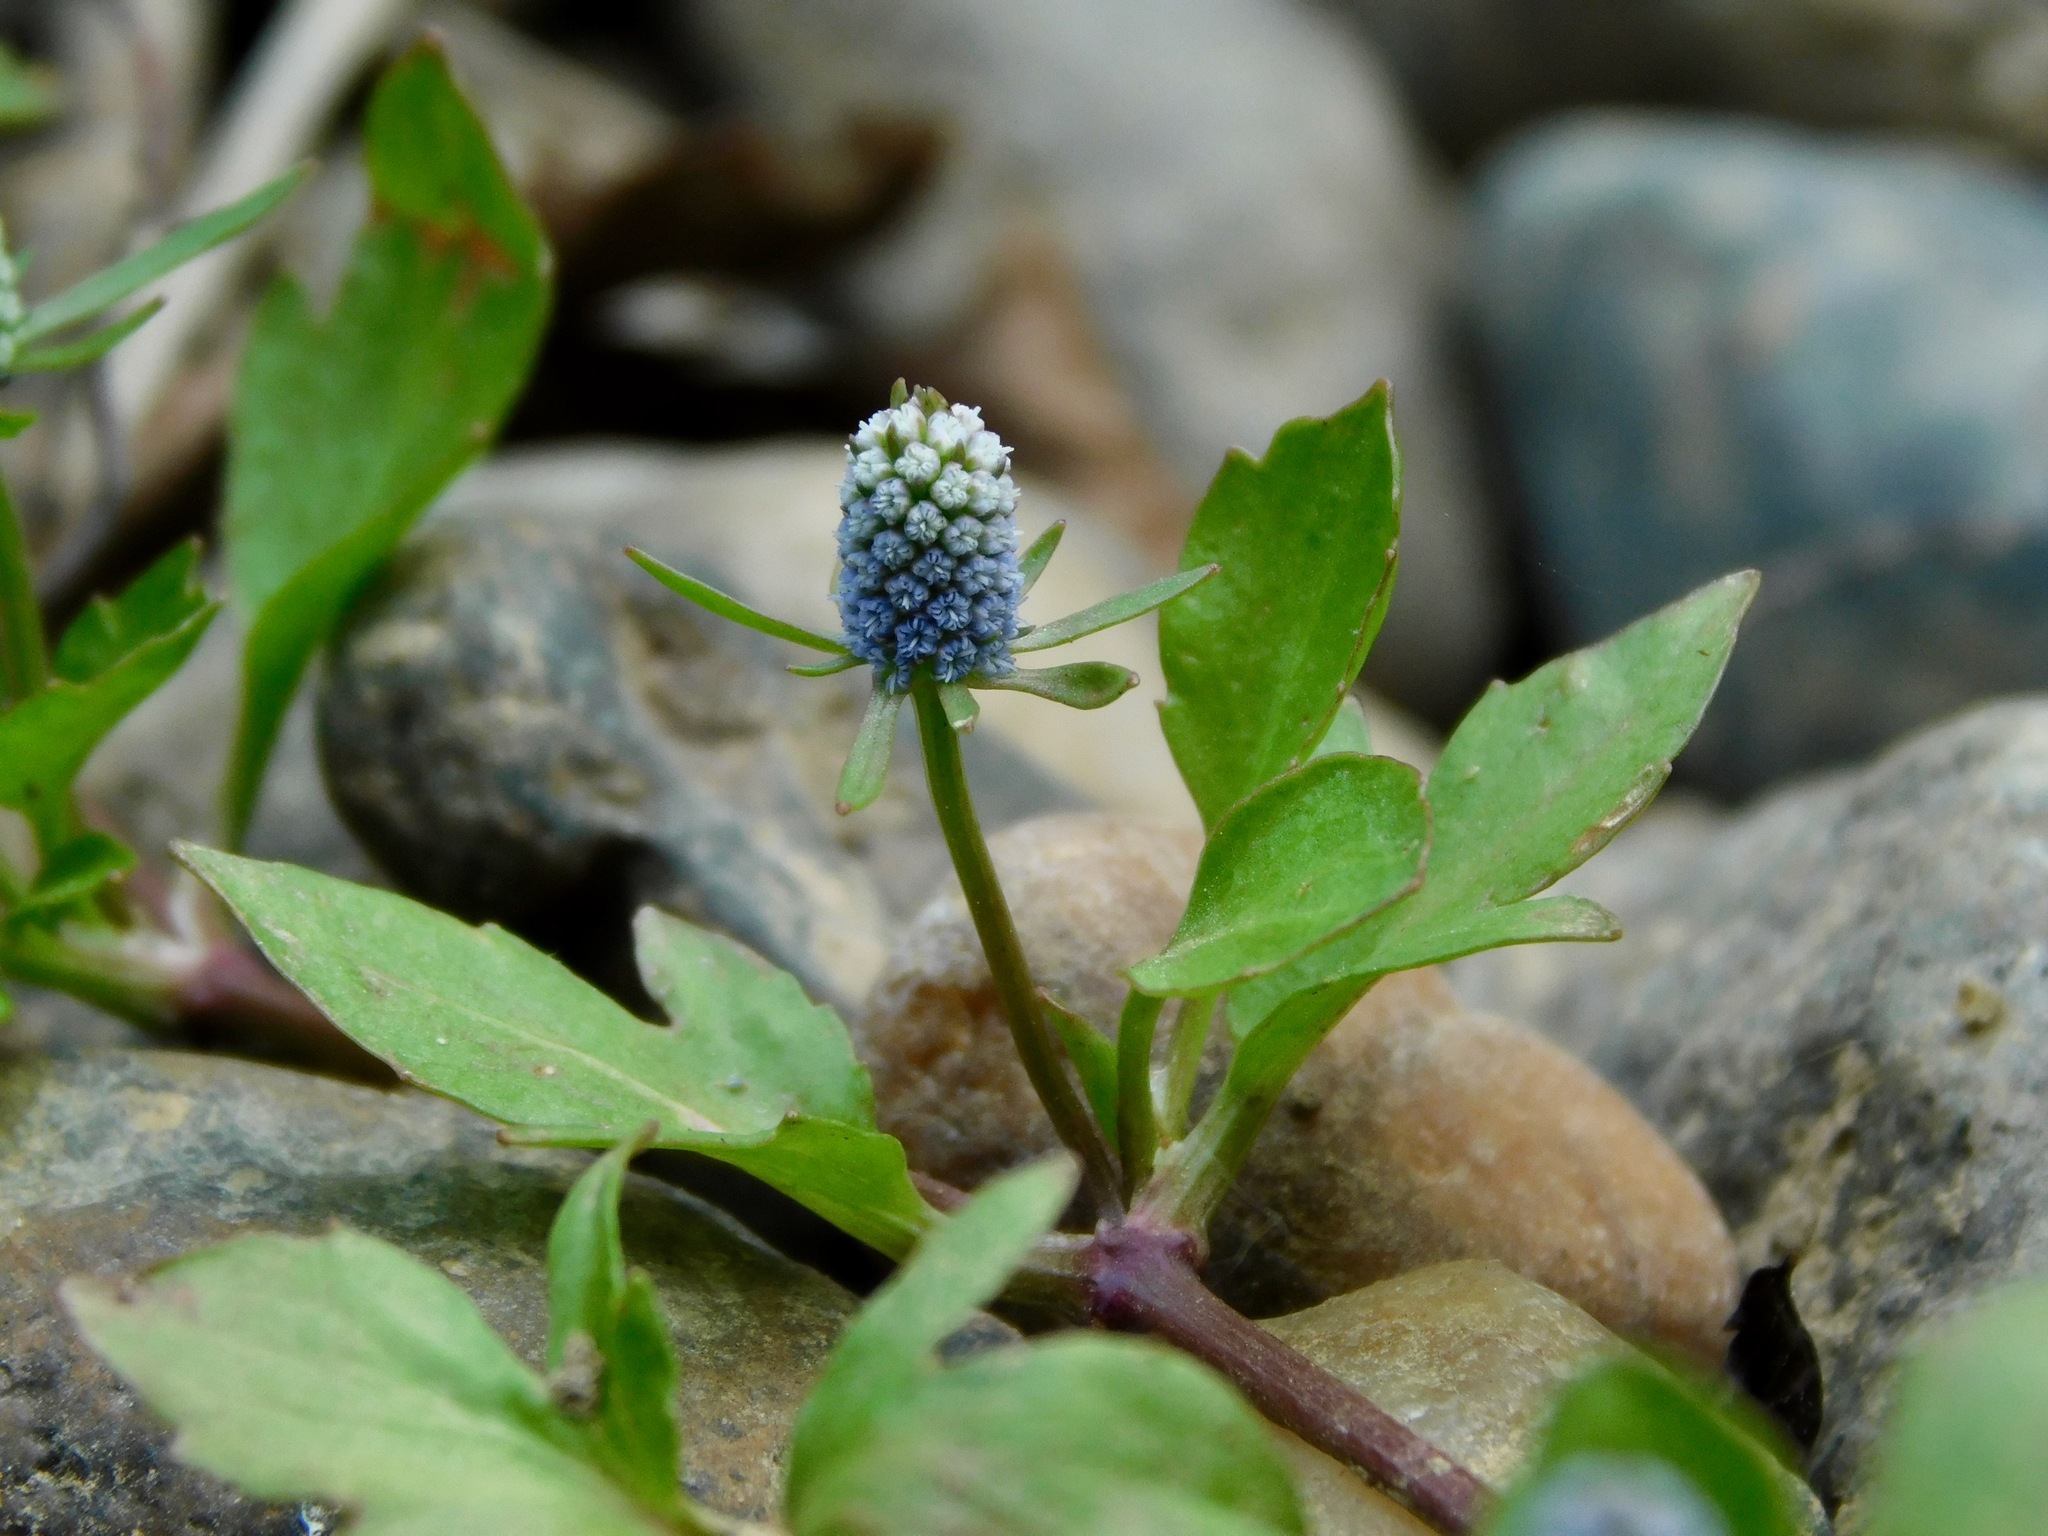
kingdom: Plantae
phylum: Tracheophyta
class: Magnoliopsida
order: Apiales
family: Apiaceae
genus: Eryngium
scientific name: Eryngium prostratum
